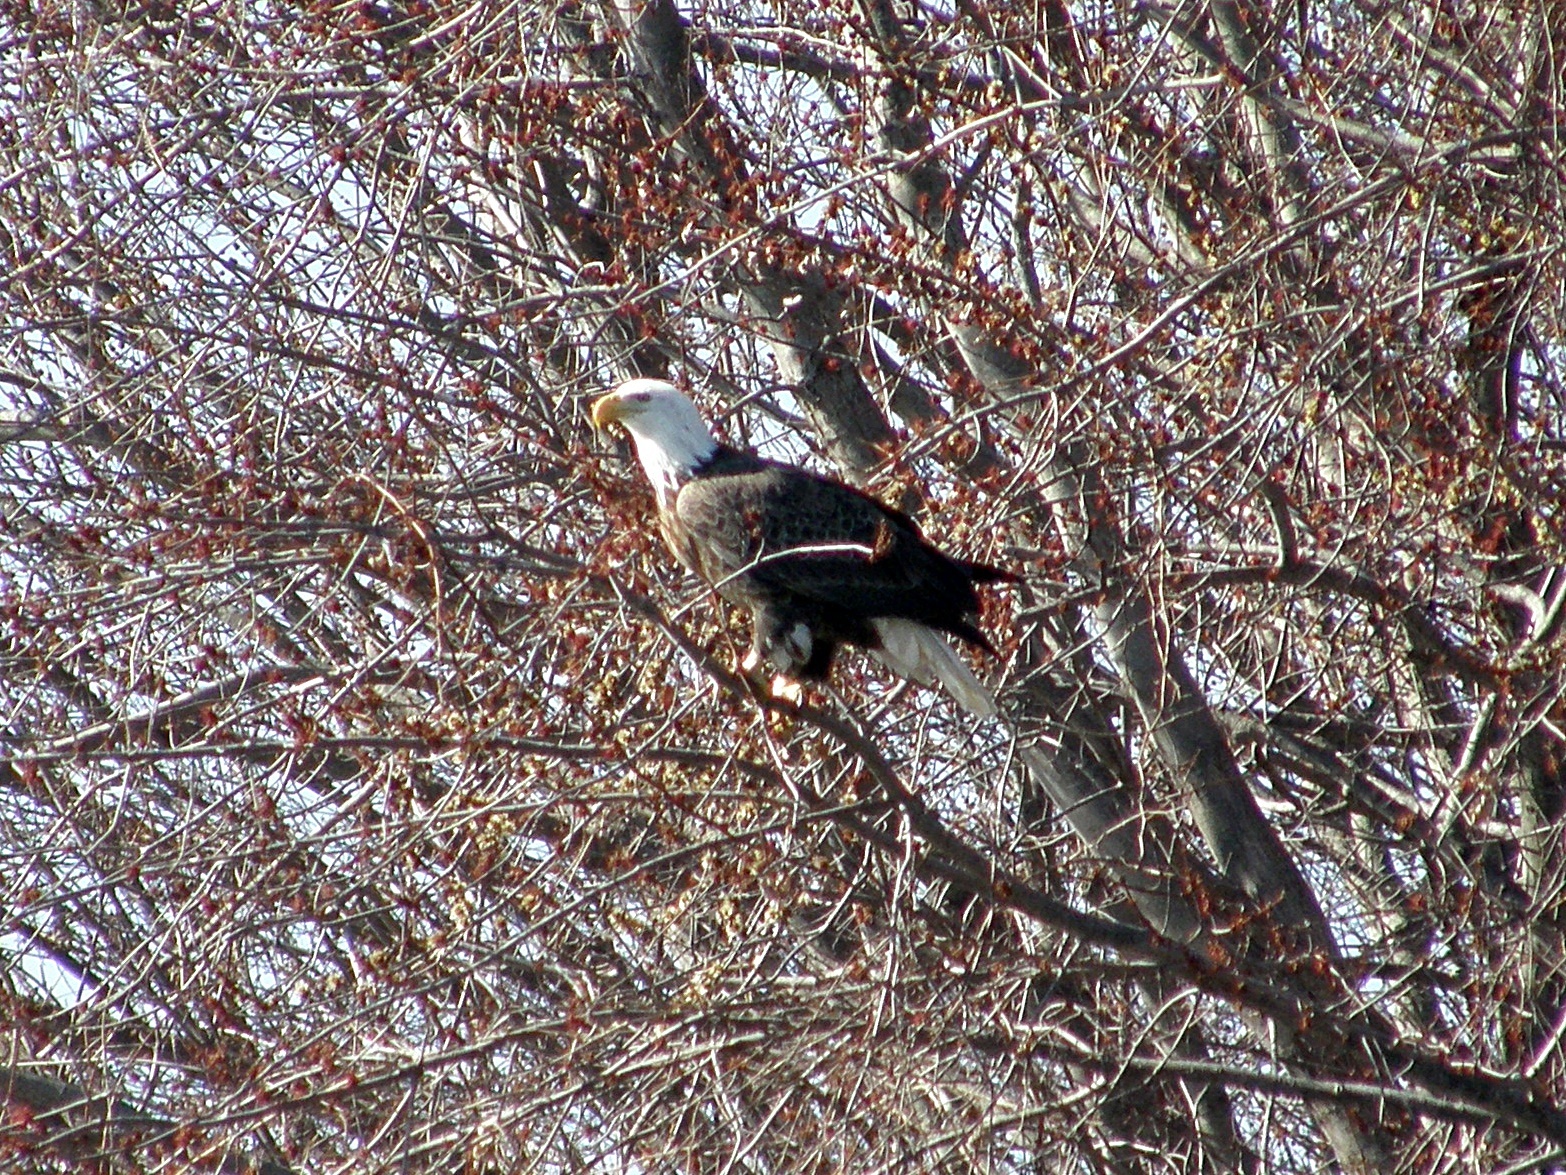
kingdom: Animalia
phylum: Chordata
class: Aves
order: Accipitriformes
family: Accipitridae
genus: Haliaeetus
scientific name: Haliaeetus leucocephalus
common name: Bald eagle
